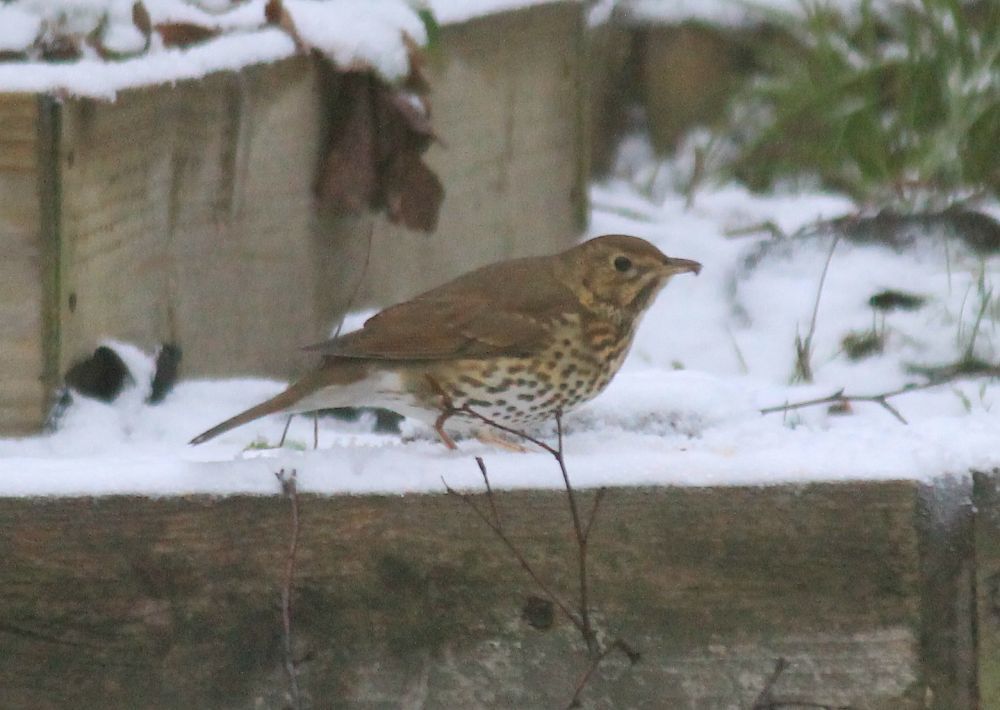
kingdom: Animalia
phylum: Chordata
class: Aves
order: Passeriformes
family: Turdidae
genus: Turdus
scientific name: Turdus philomelos
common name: Song thrush
